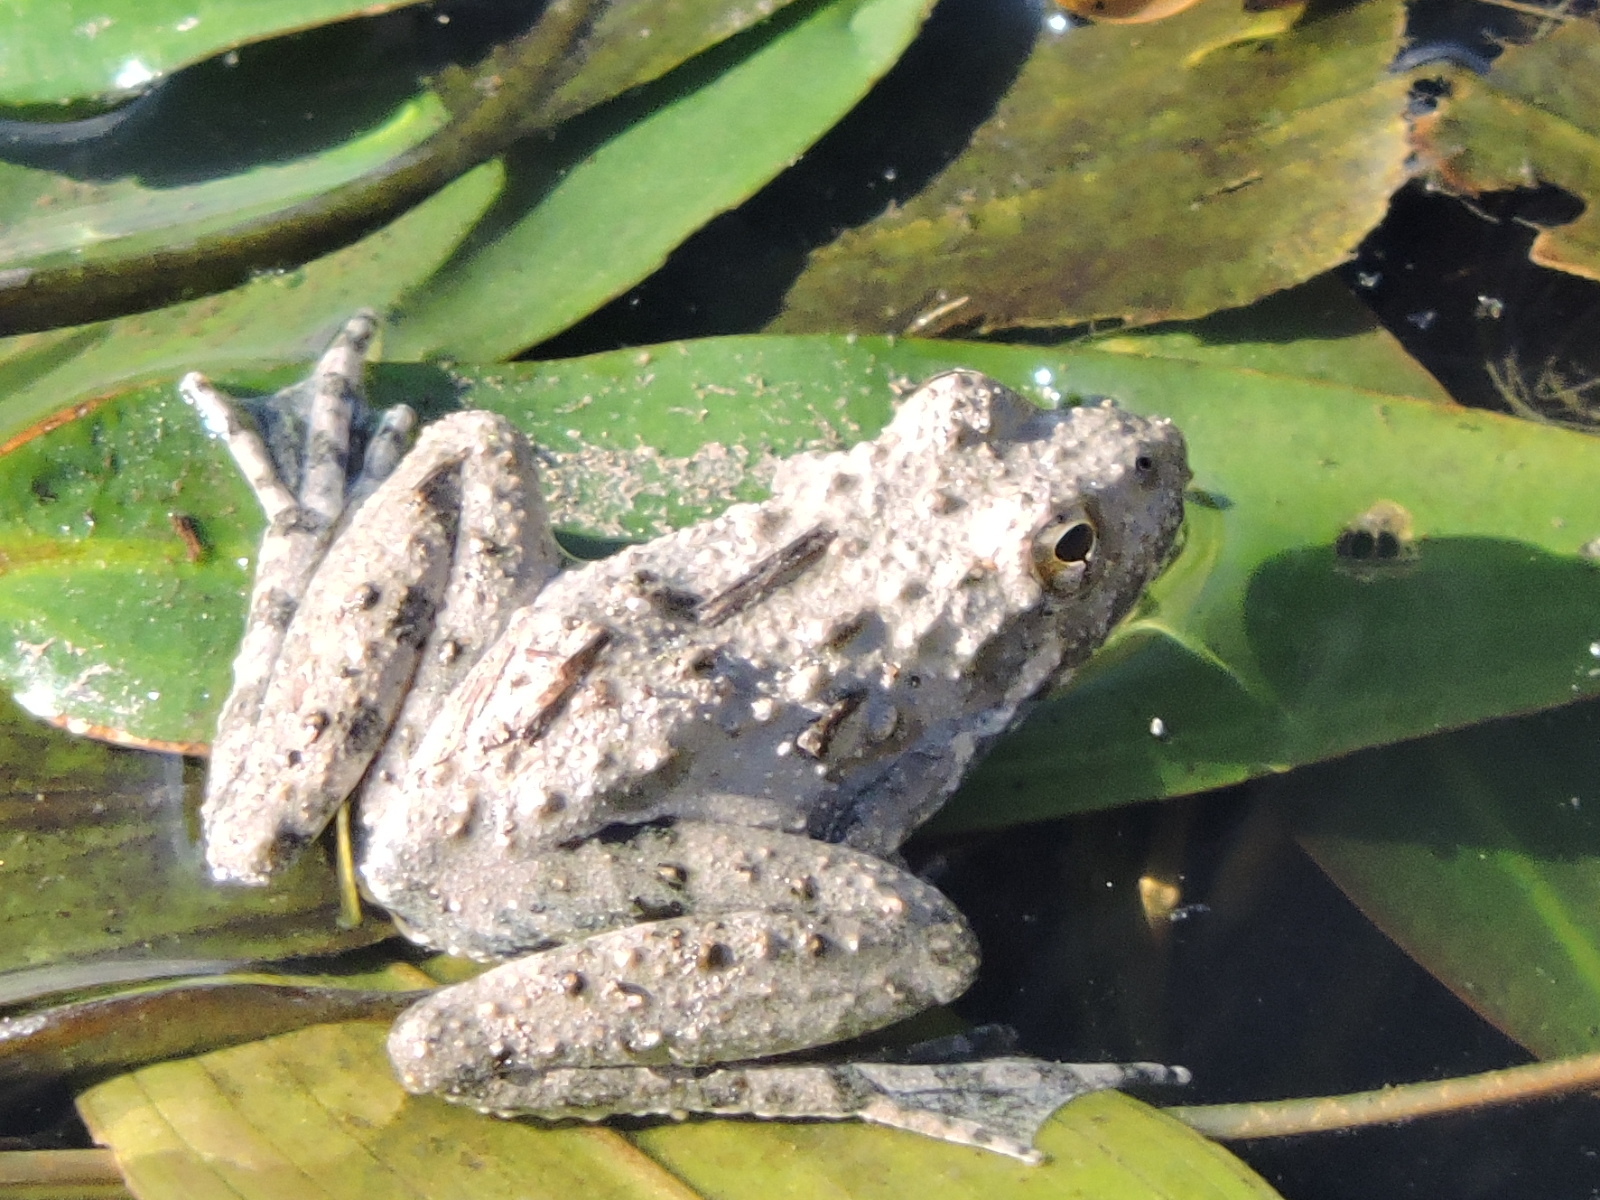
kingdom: Animalia
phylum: Chordata
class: Amphibia
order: Anura
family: Hylidae
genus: Acris
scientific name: Acris blanchardi
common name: Blanchard's cricket frog
